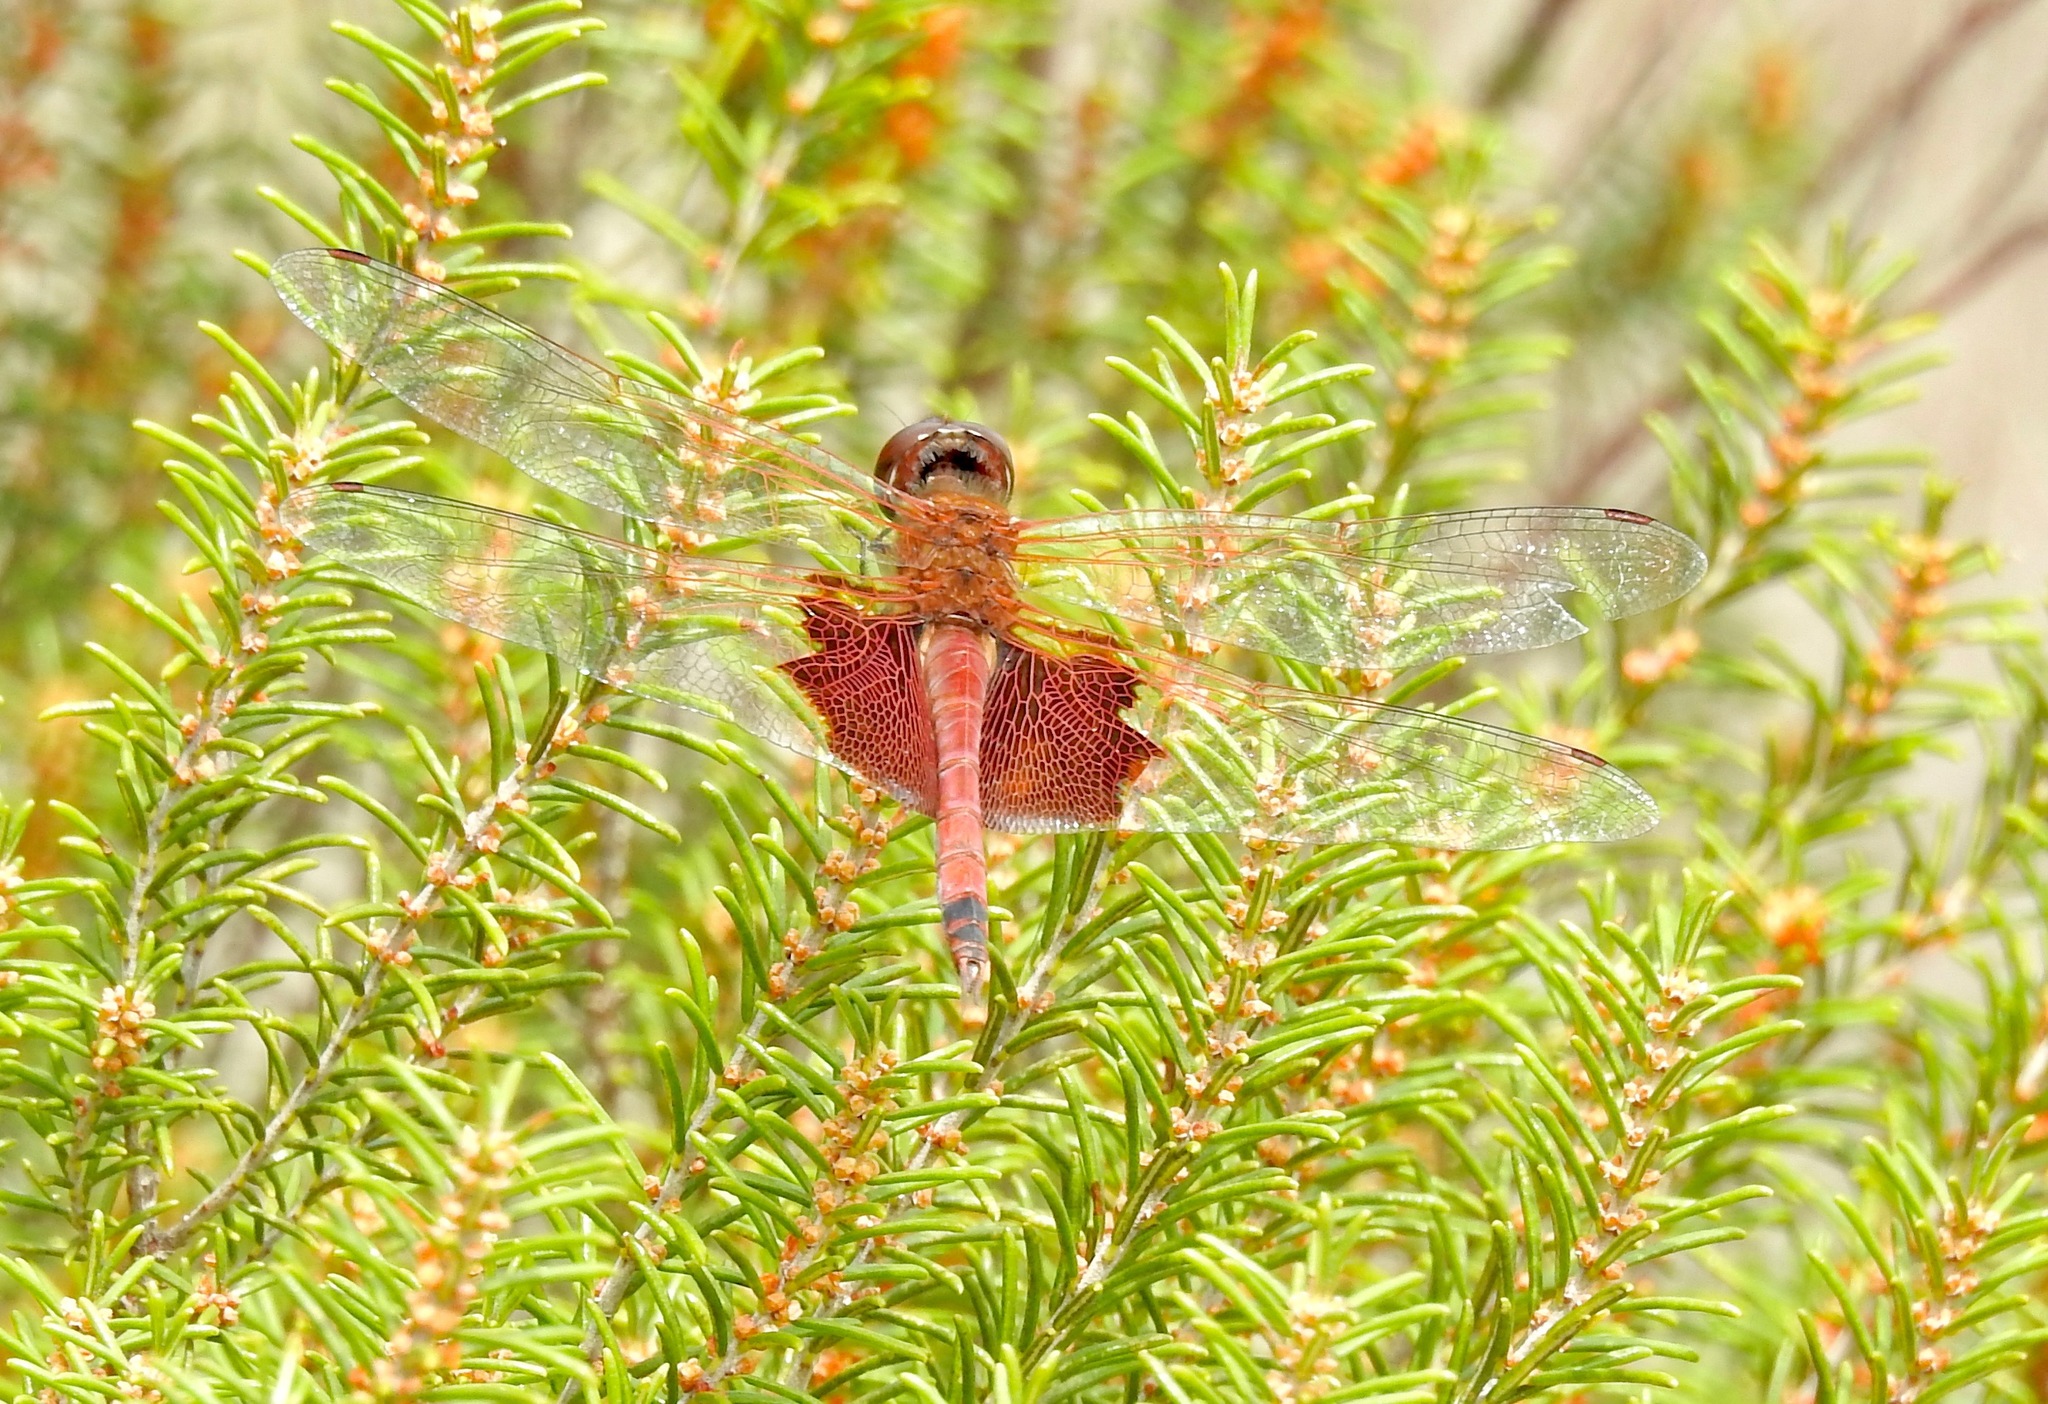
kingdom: Animalia
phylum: Arthropoda
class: Insecta
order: Odonata
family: Libellulidae
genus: Tramea
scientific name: Tramea carolina
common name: Carolina saddlebags
